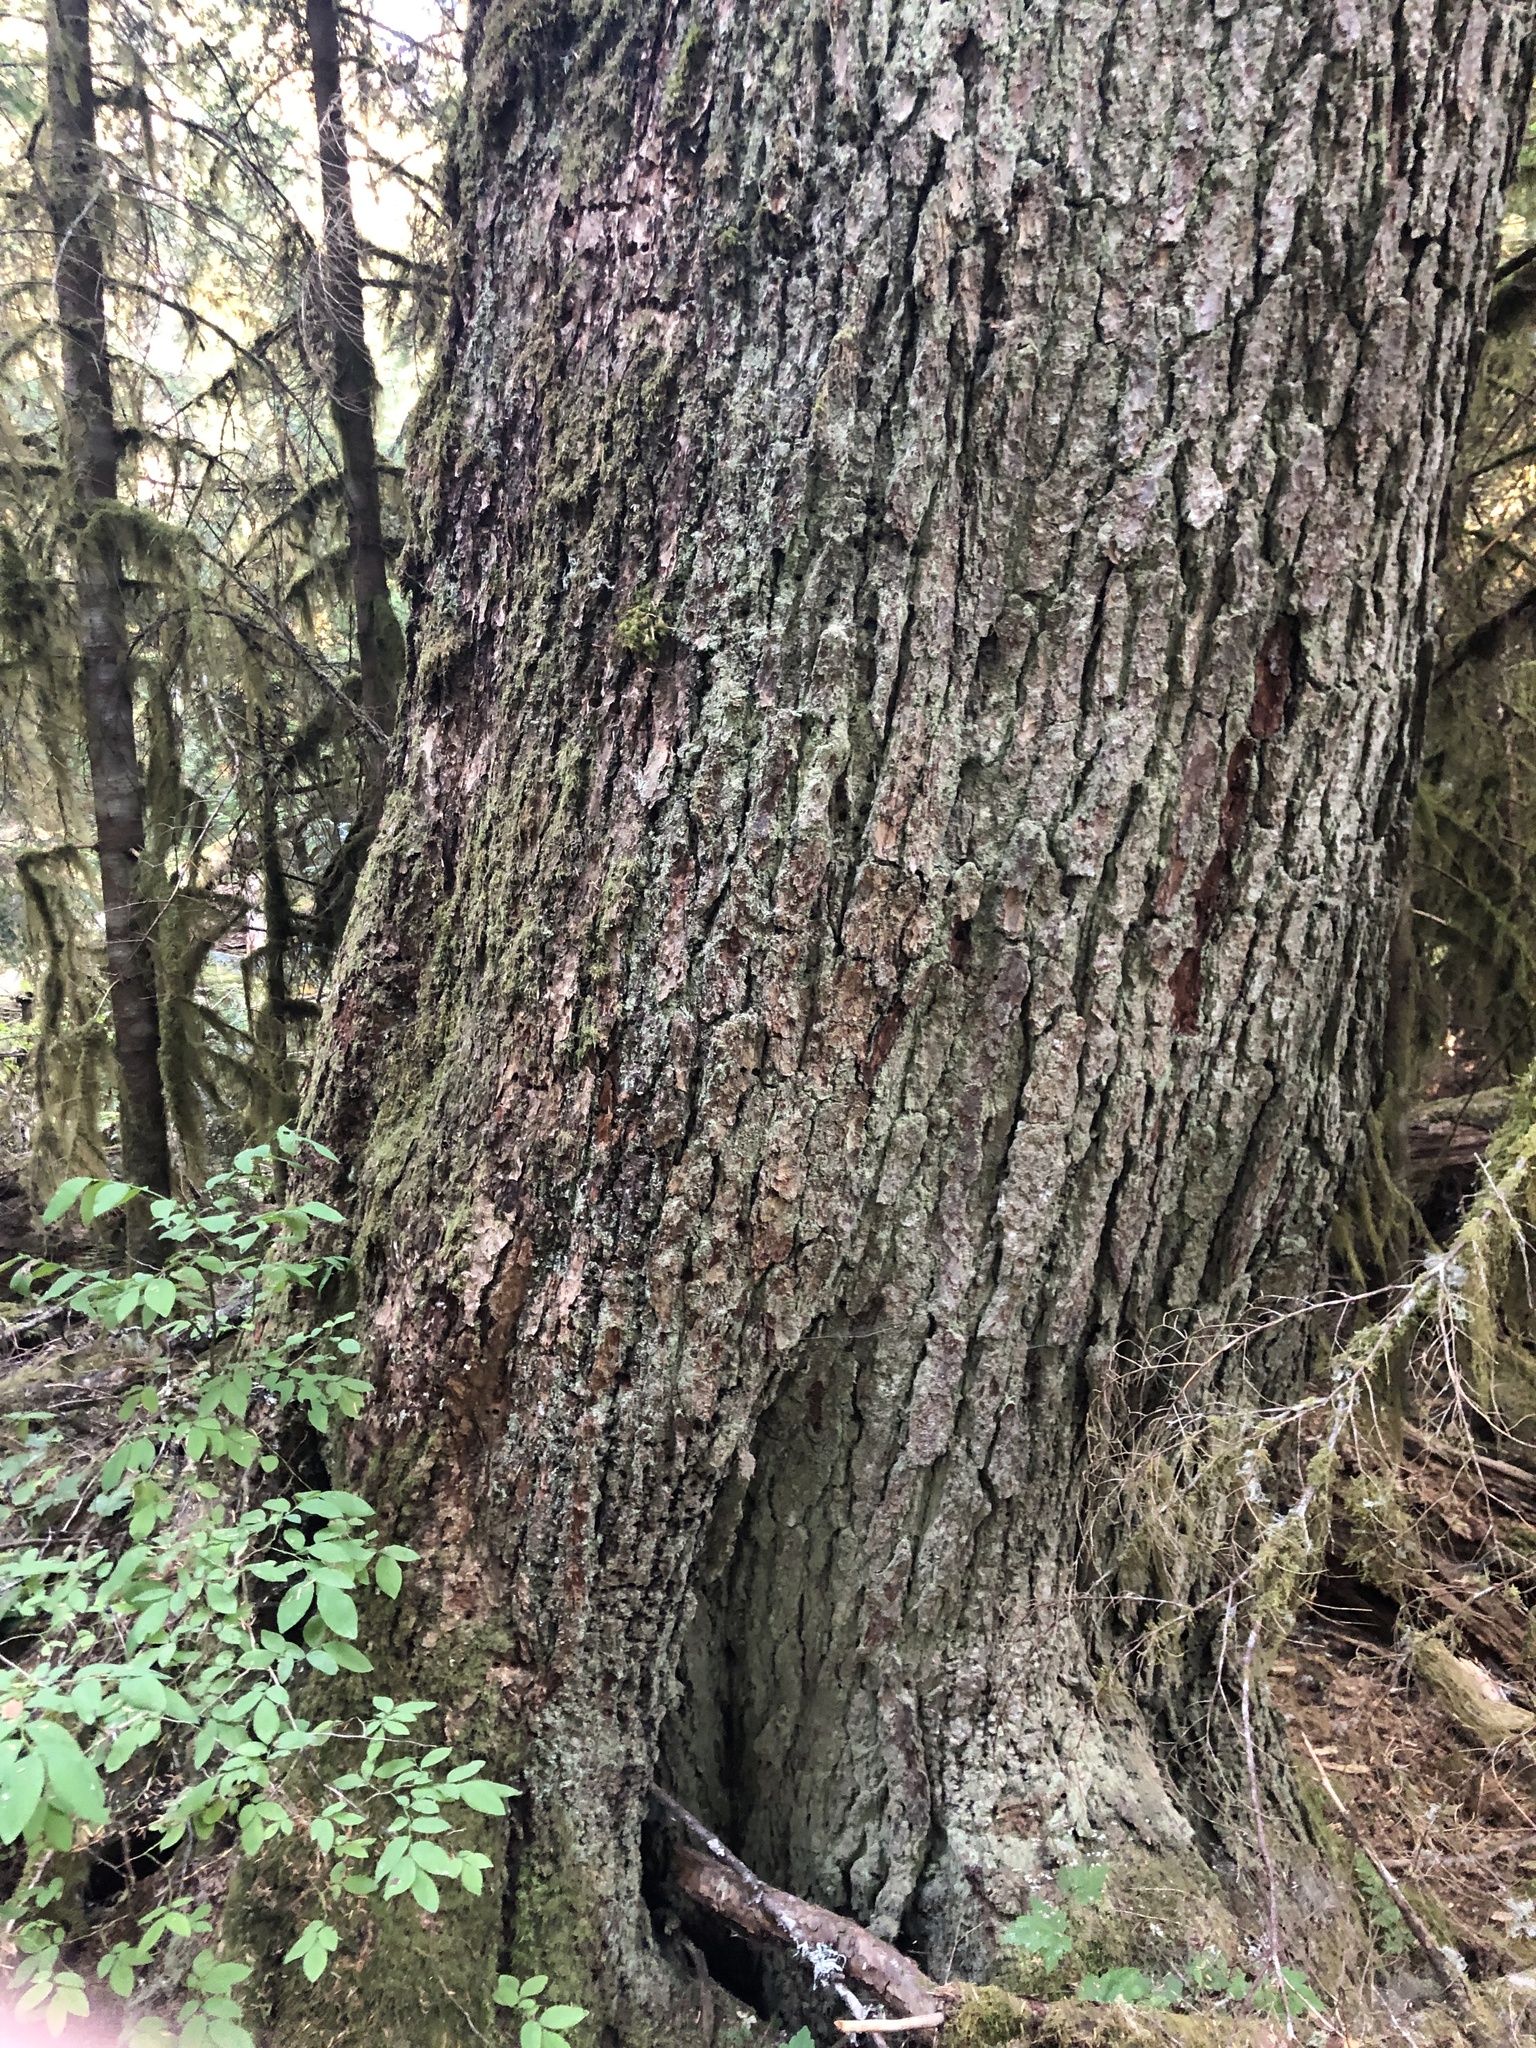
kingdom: Plantae
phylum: Tracheophyta
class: Pinopsida
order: Pinales
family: Pinaceae
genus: Tsuga
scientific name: Tsuga heterophylla
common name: Western hemlock
